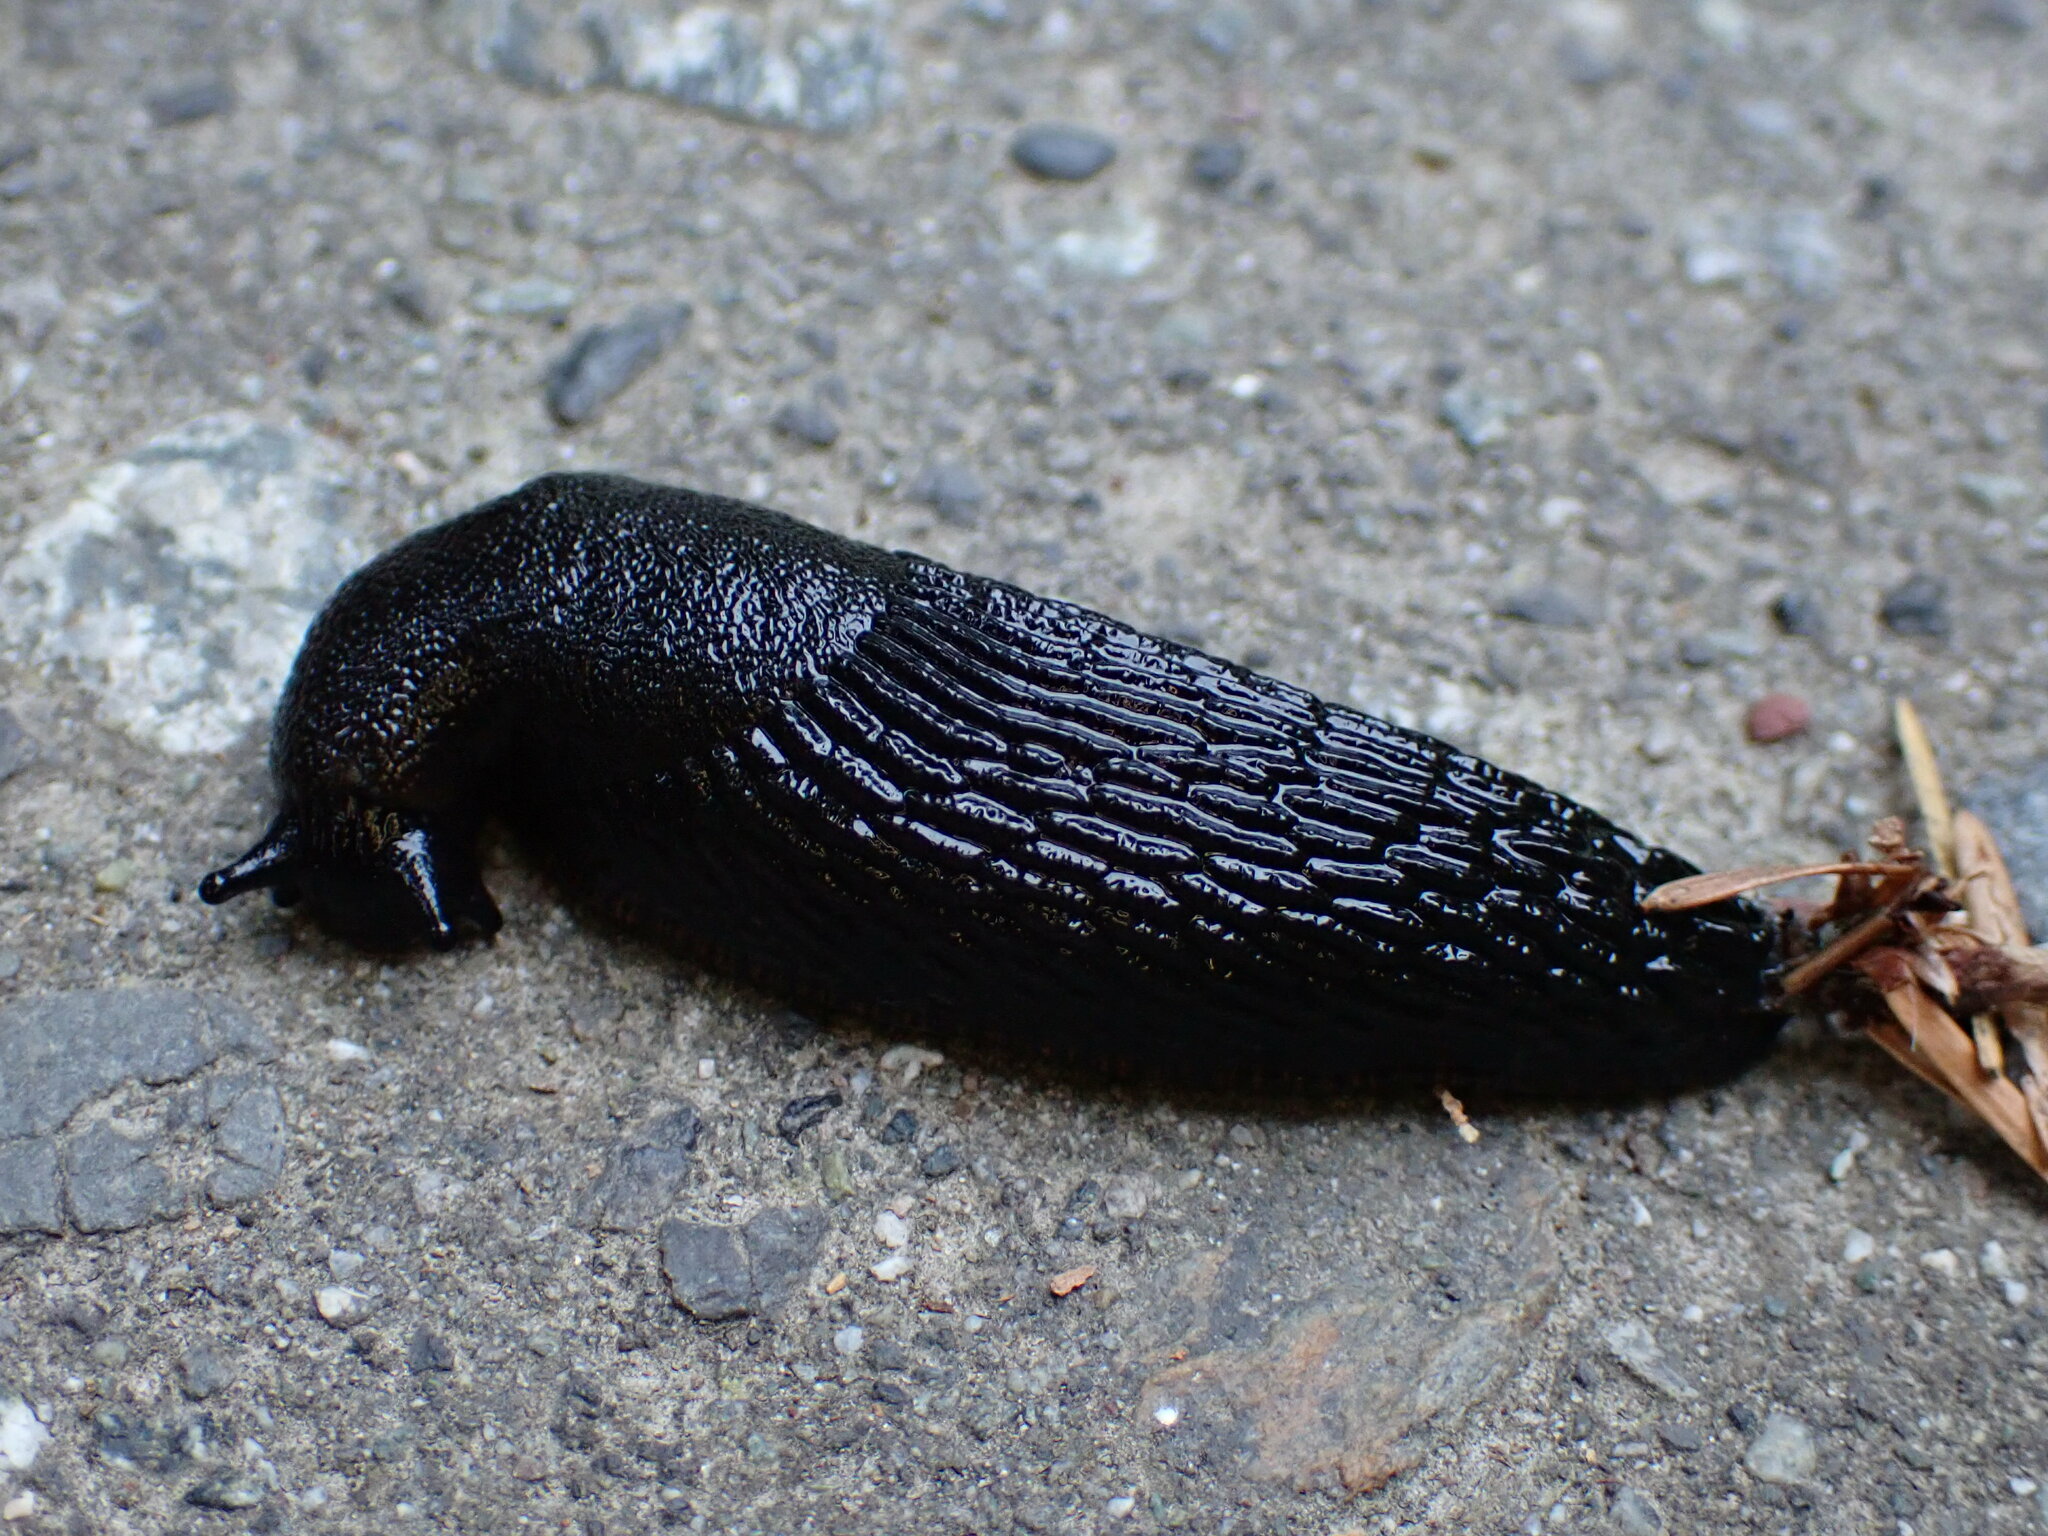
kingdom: Animalia
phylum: Mollusca
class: Gastropoda
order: Stylommatophora
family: Arionidae
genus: Arion
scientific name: Arion
